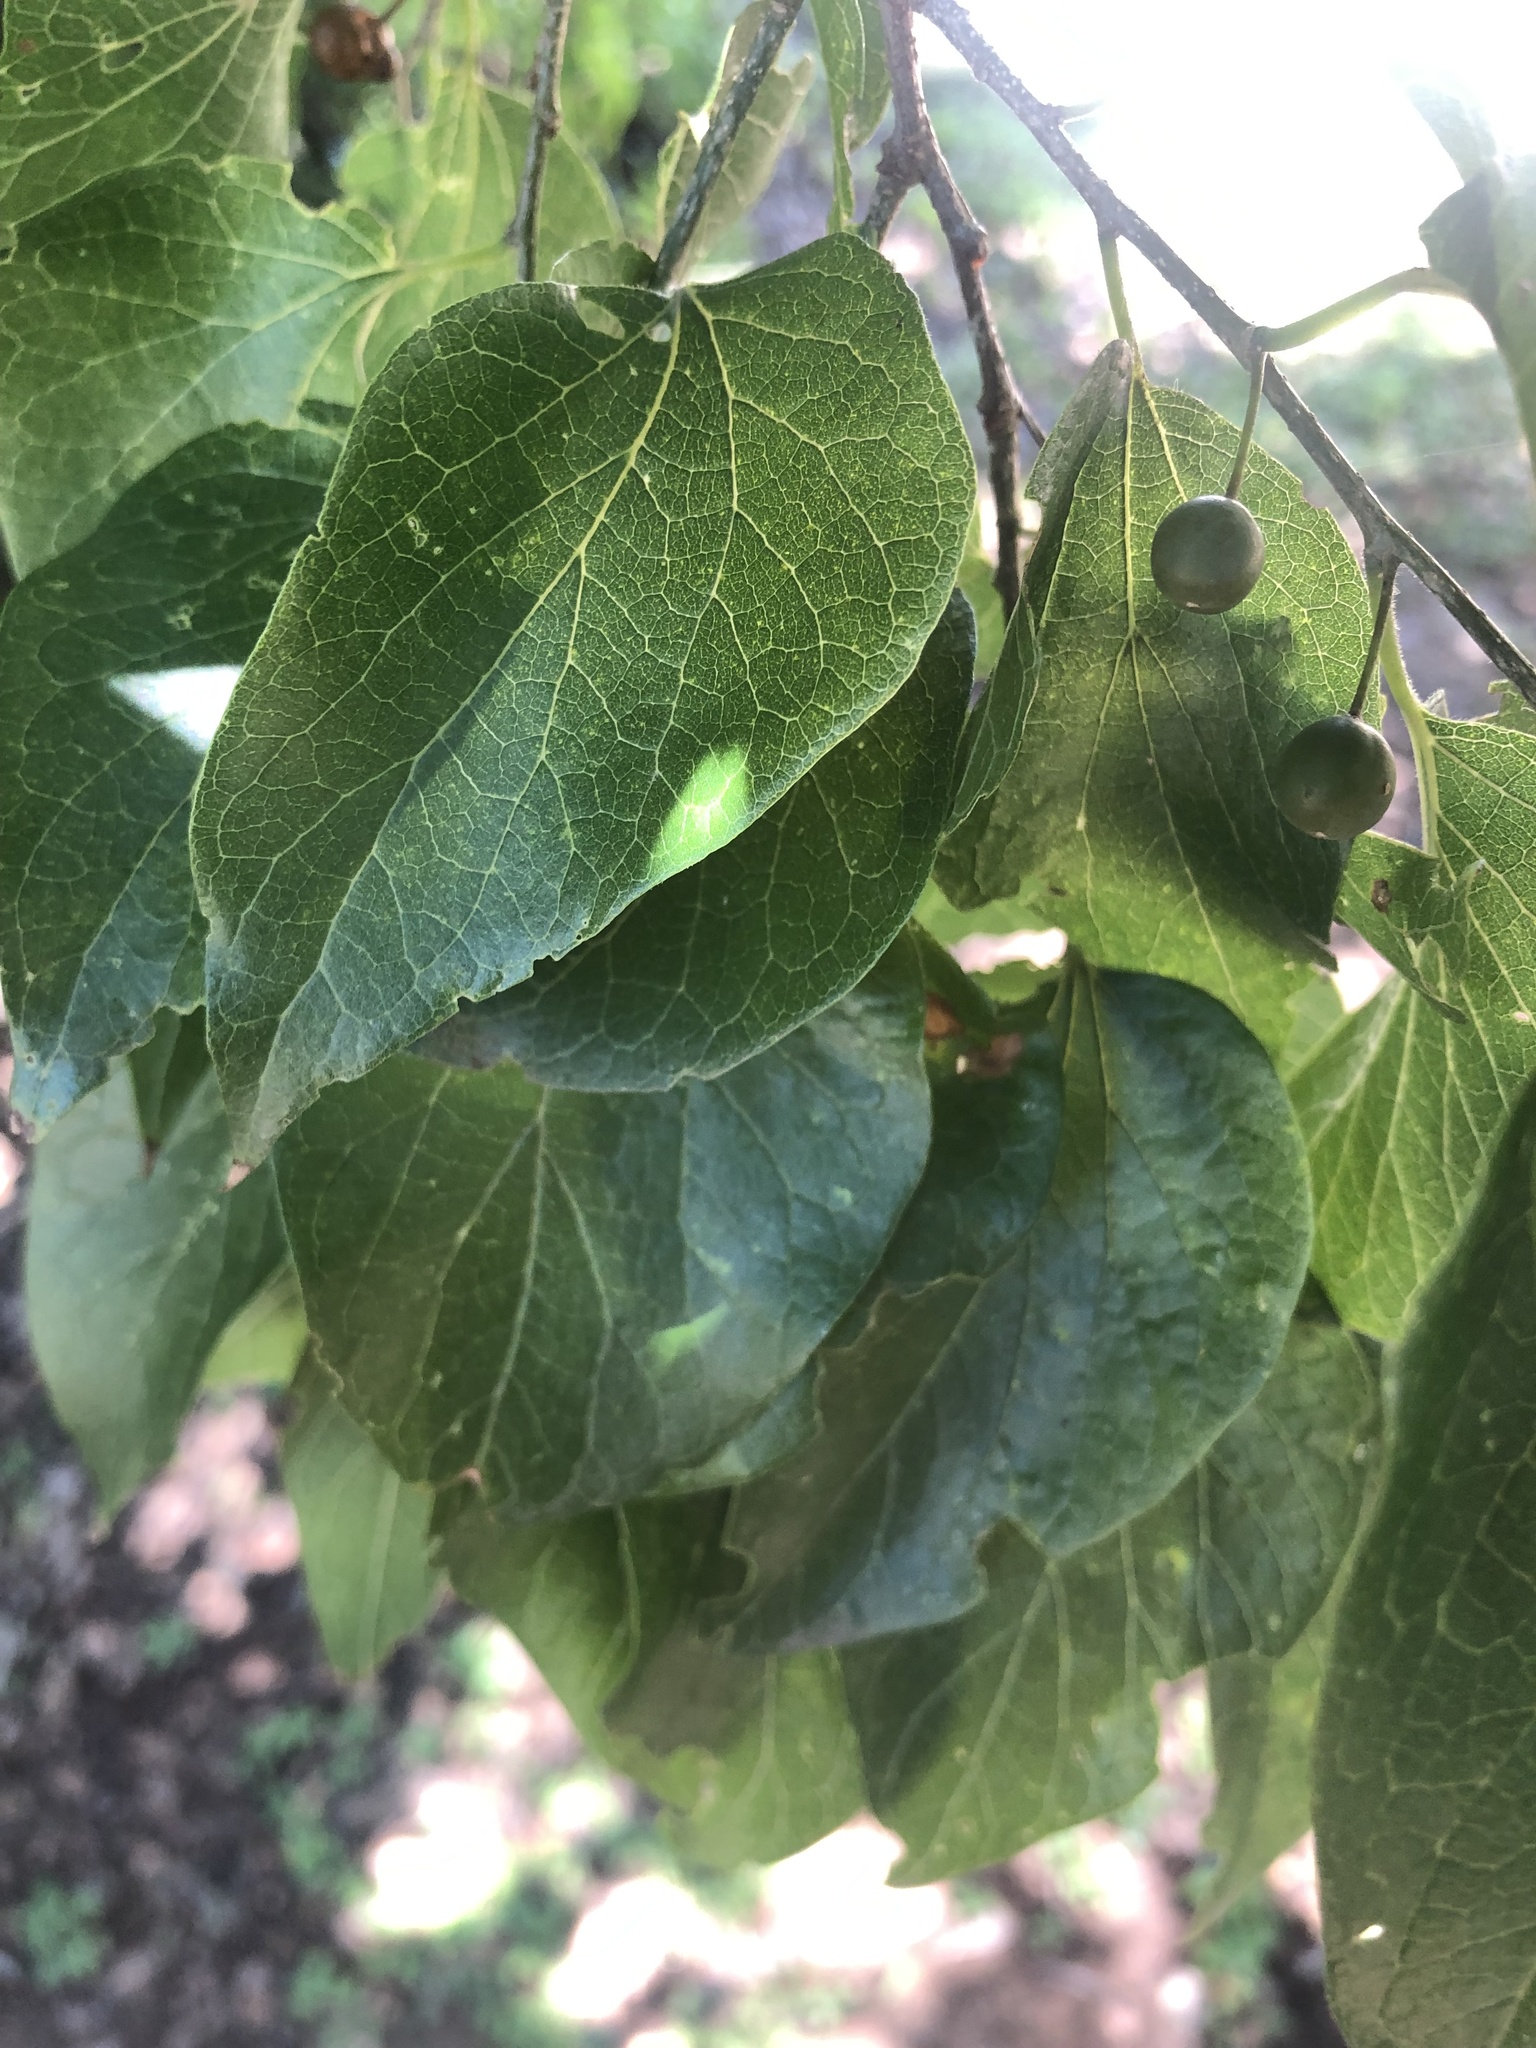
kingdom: Plantae
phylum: Tracheophyta
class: Magnoliopsida
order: Rosales
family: Cannabaceae
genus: Celtis
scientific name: Celtis laevigata
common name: Sugarberry
